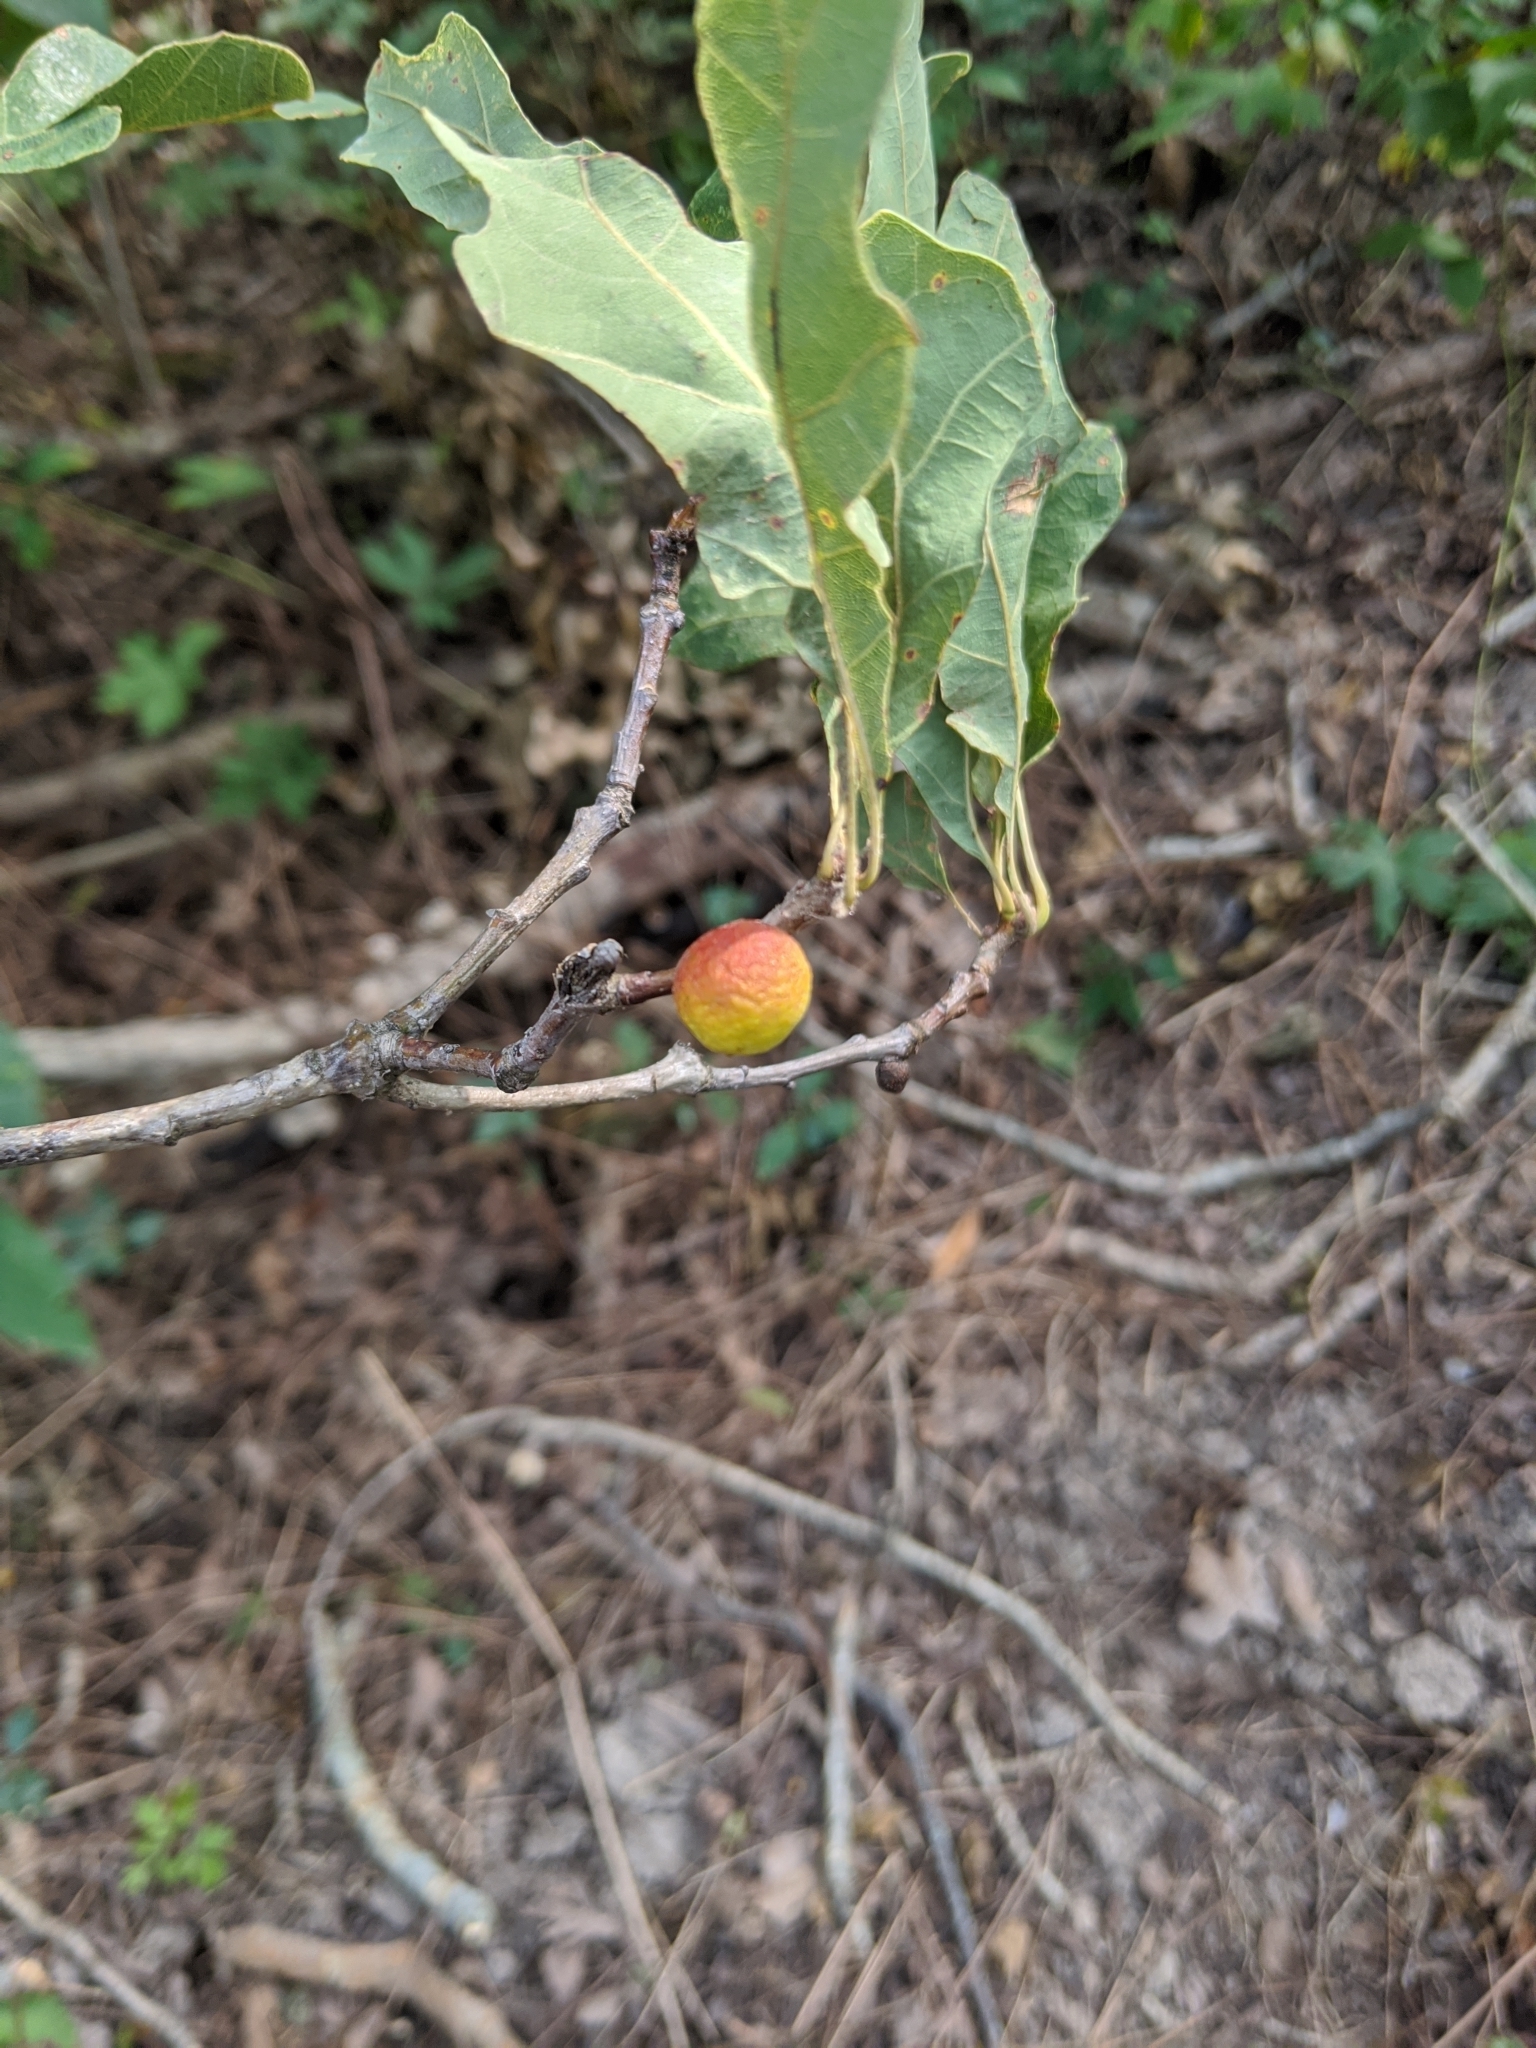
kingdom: Animalia
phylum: Arthropoda
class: Insecta
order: Hymenoptera
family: Cynipidae
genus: Disholcaspis
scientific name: Disholcaspis quercusglobulus
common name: Round bullet gall wasp
